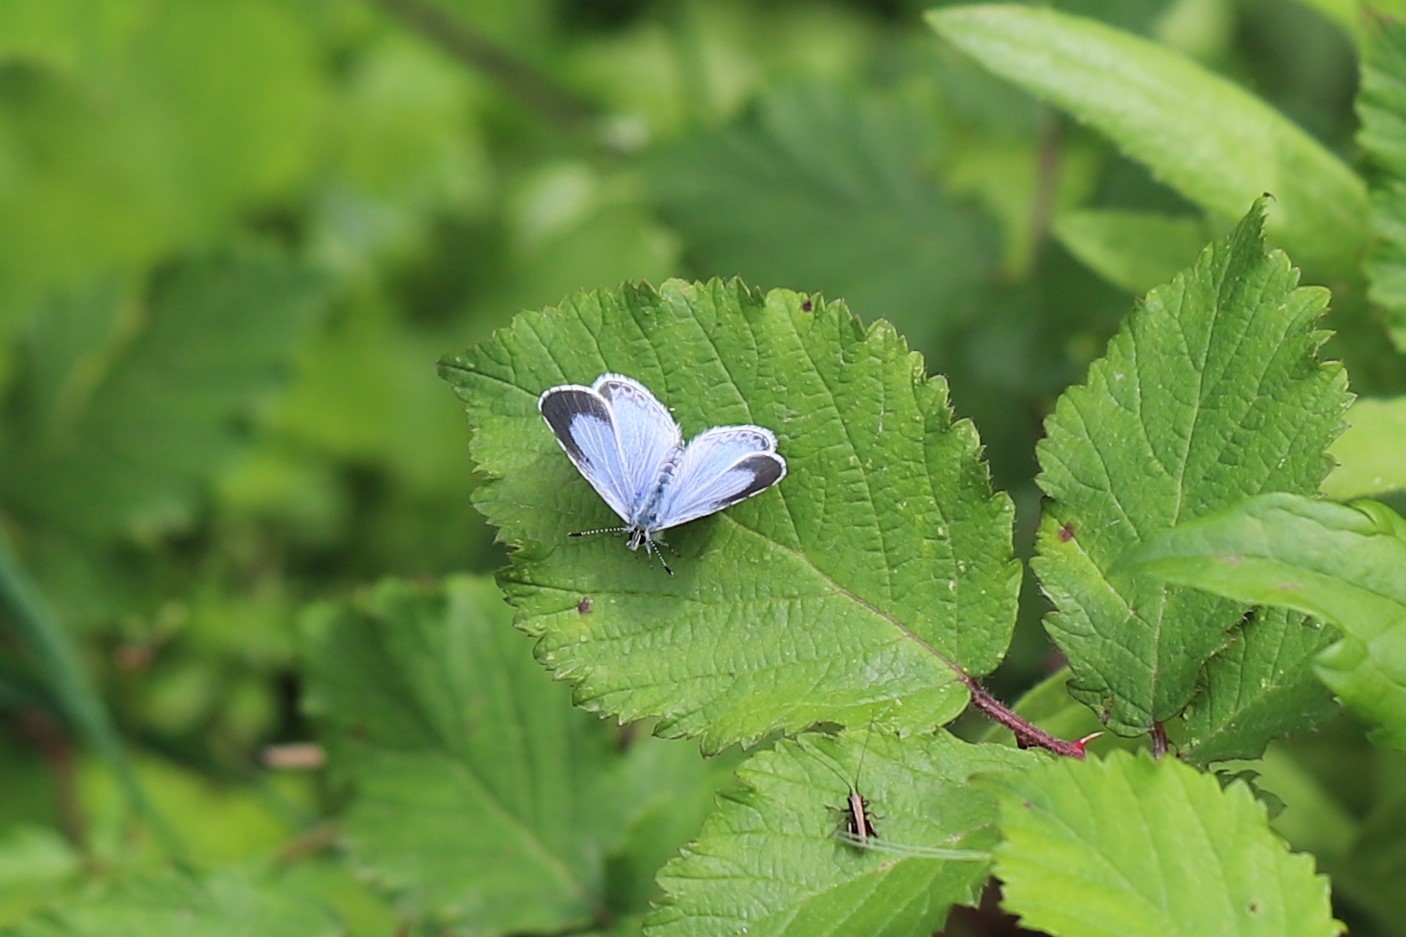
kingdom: Animalia
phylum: Arthropoda
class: Insecta
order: Lepidoptera
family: Lycaenidae
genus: Celastrina
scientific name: Celastrina argiolus
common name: Holly blue
